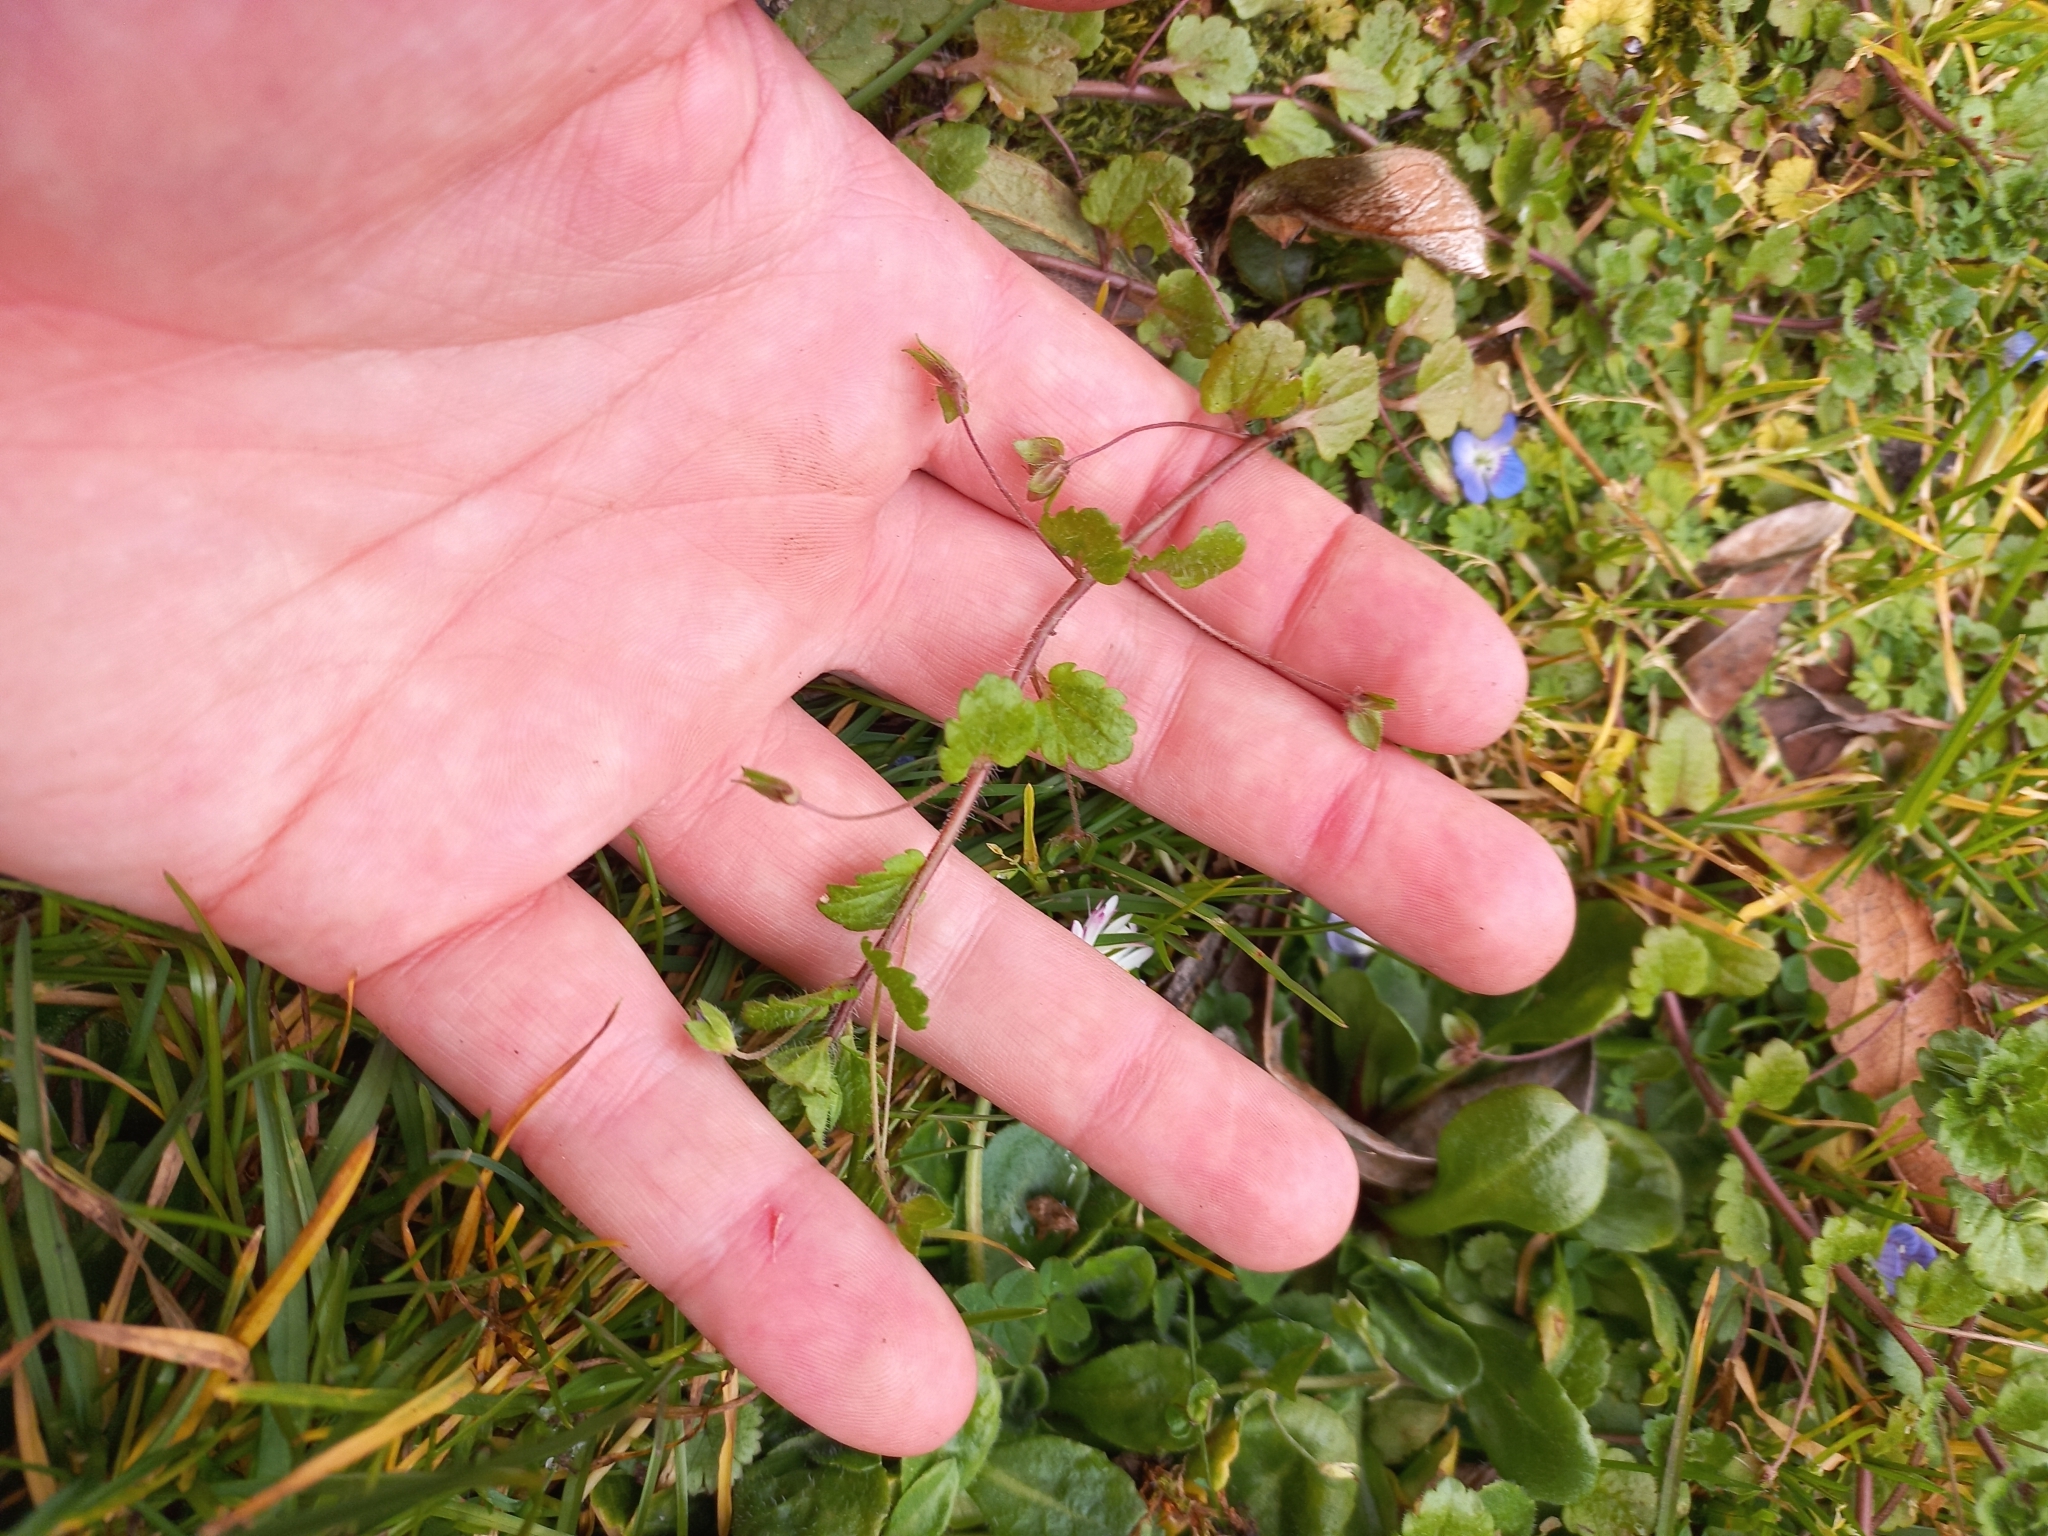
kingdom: Plantae
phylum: Tracheophyta
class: Magnoliopsida
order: Lamiales
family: Plantaginaceae
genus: Veronica
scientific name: Veronica persica
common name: Common field-speedwell
